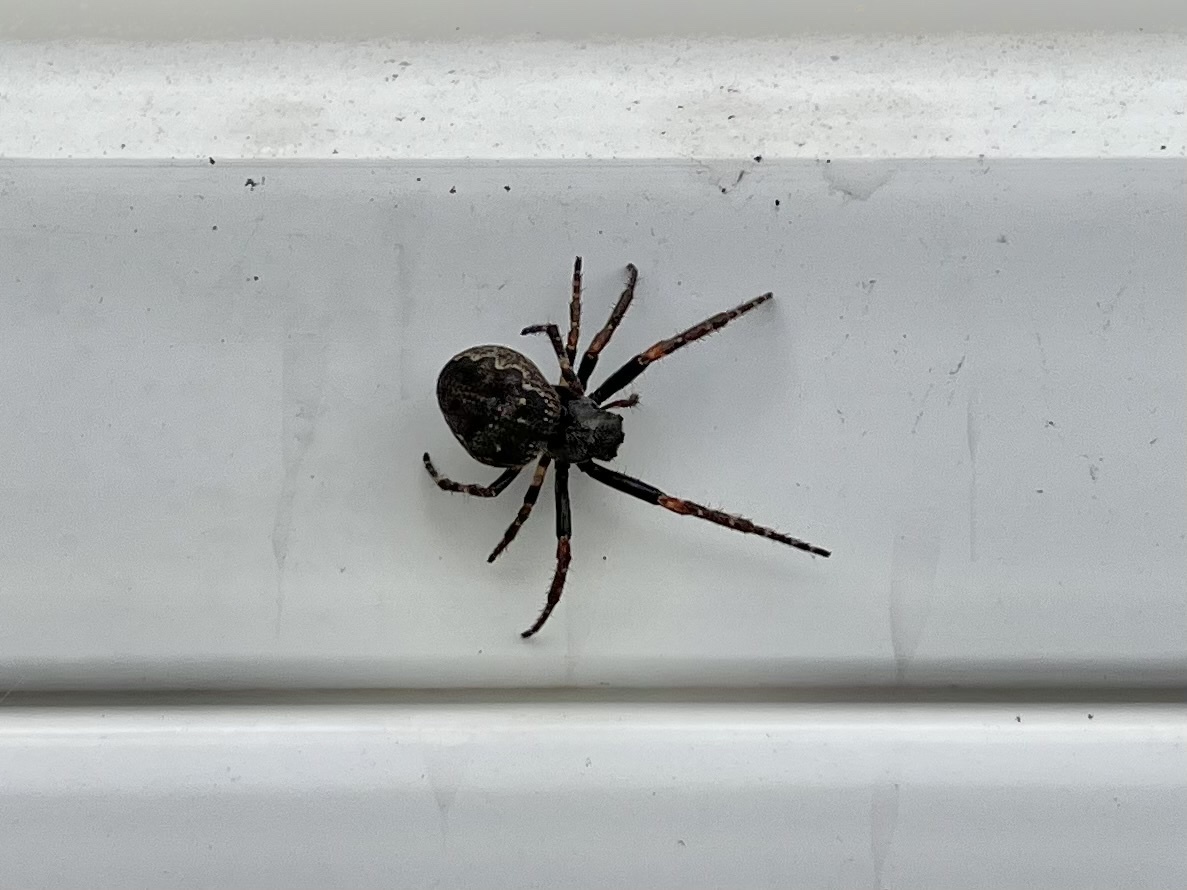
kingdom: Animalia
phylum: Arthropoda
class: Arachnida
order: Araneae
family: Araneidae
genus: Nuctenea
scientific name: Nuctenea umbratica
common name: Toad spider
